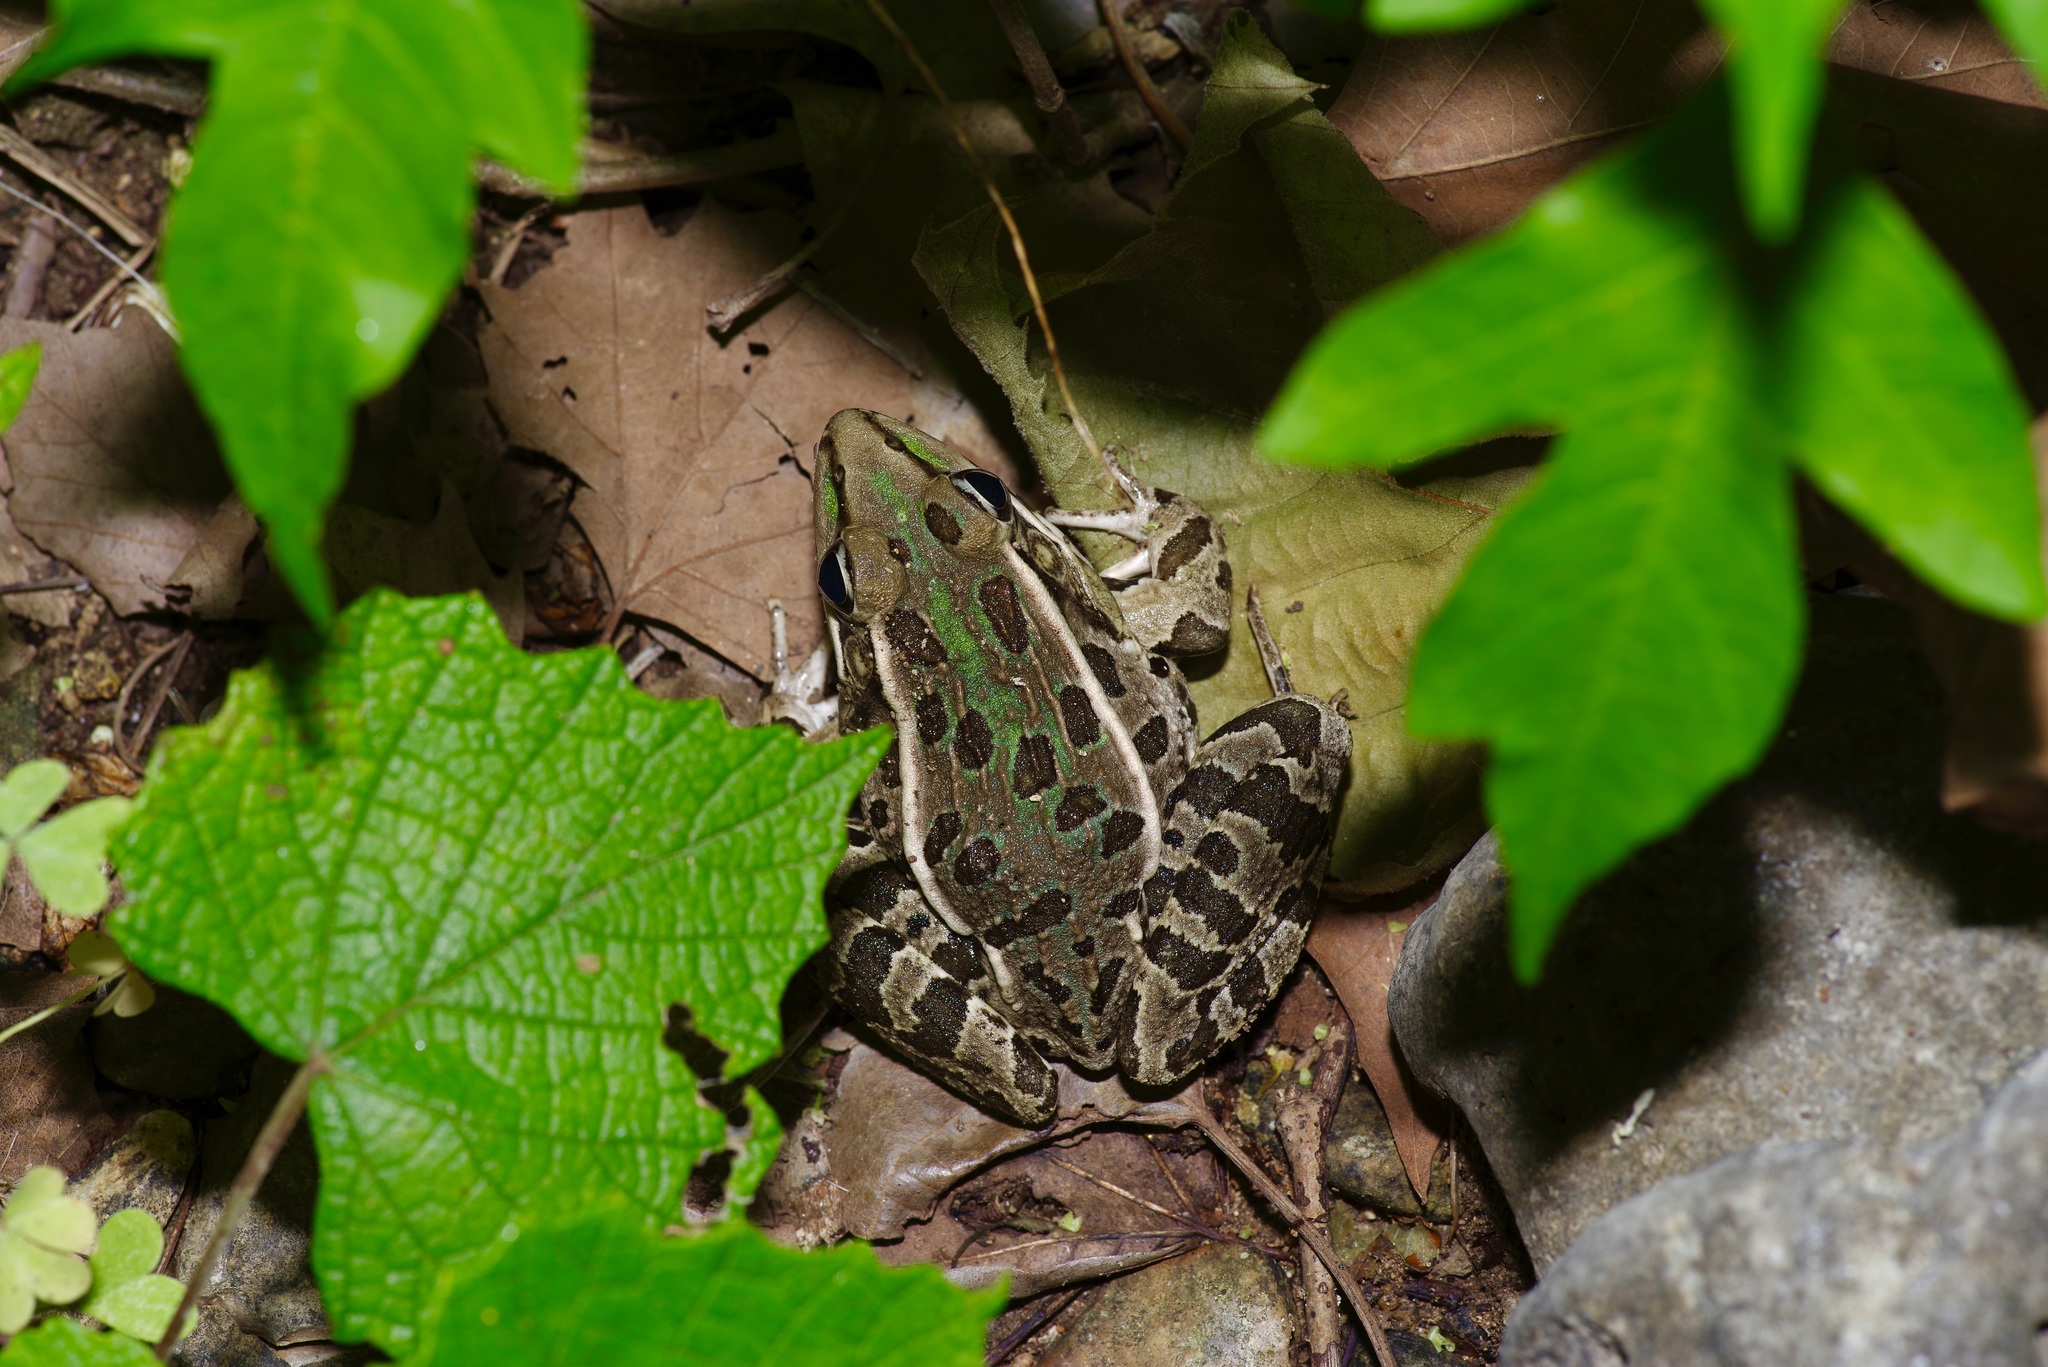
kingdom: Animalia
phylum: Chordata
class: Amphibia
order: Anura
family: Ranidae
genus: Lithobates
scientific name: Lithobates berlandieri
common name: Rio grande leopard frog
